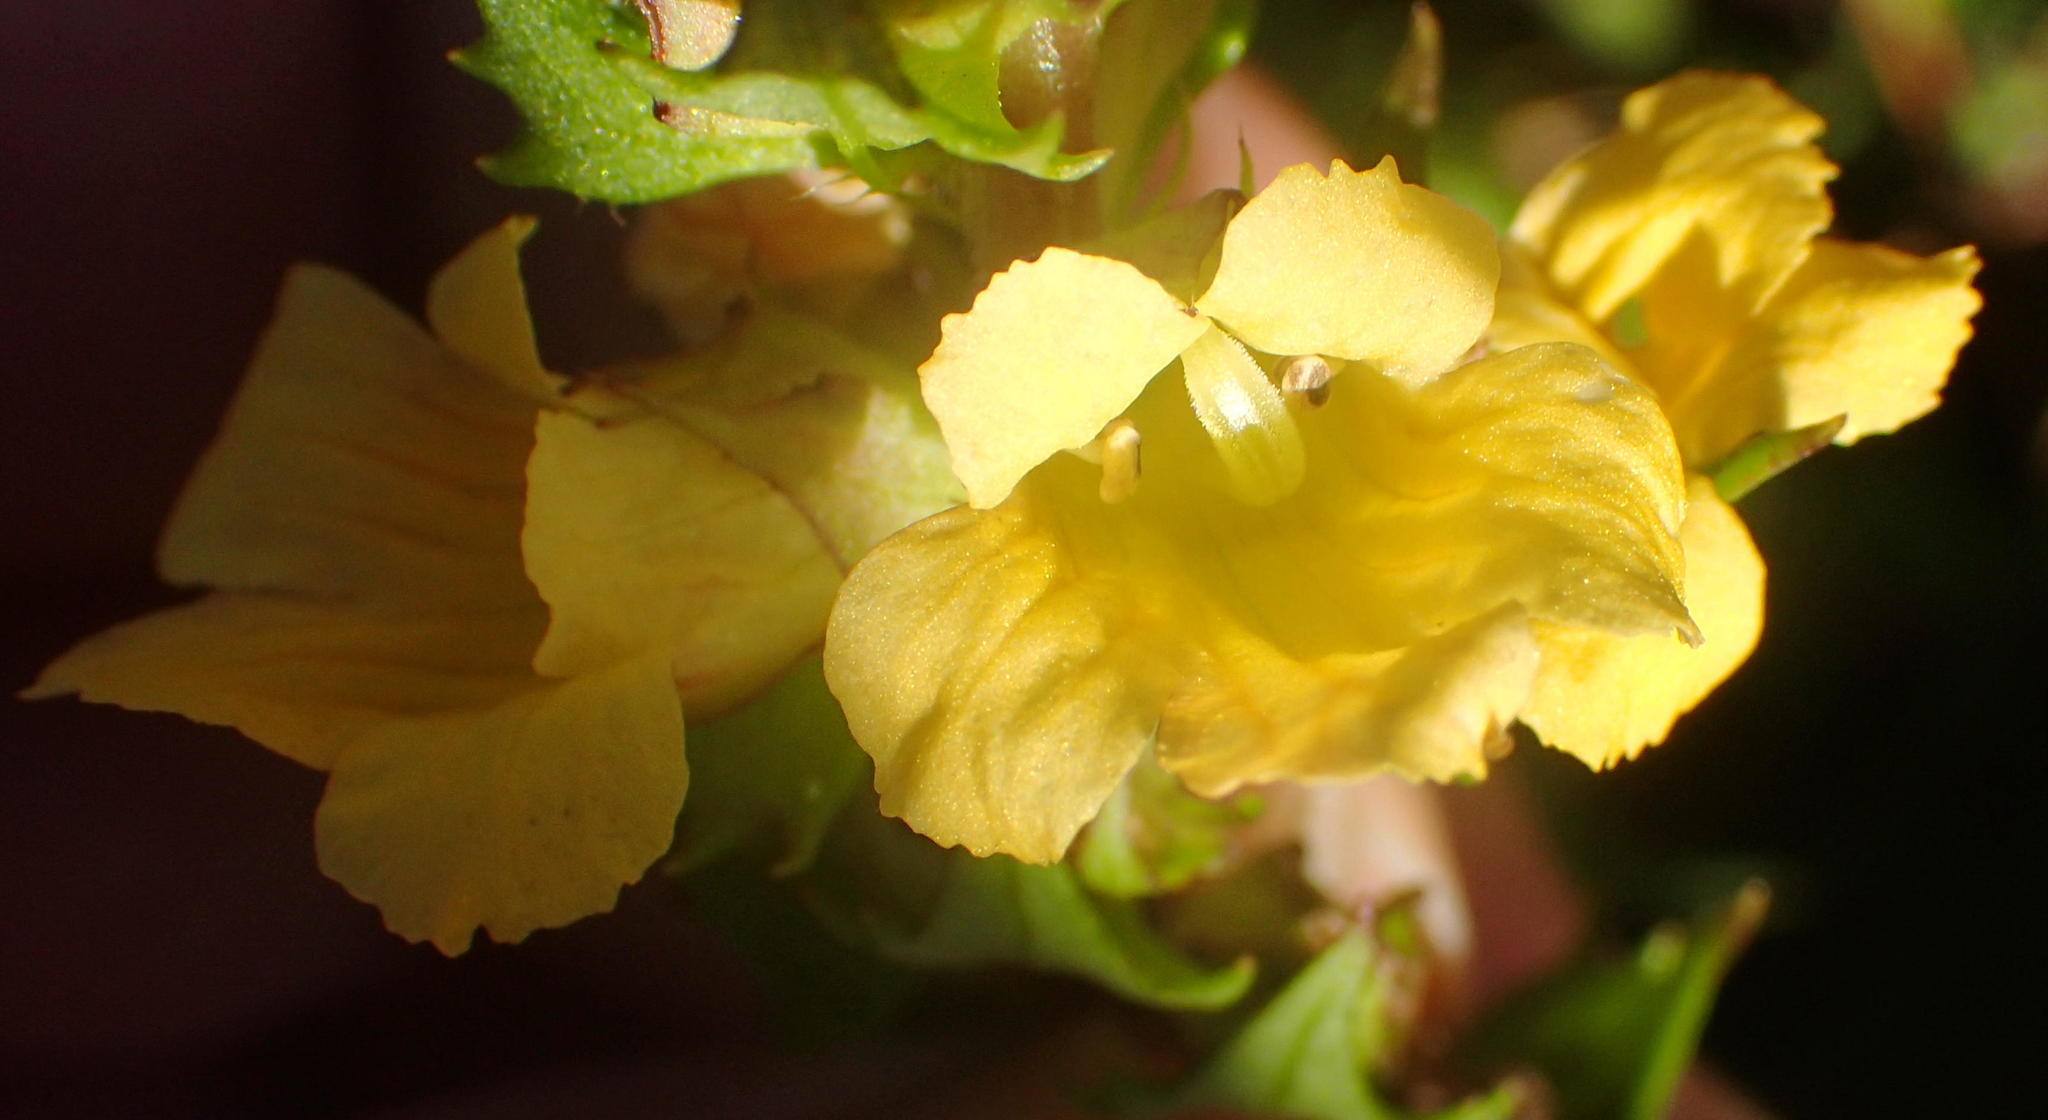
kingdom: Plantae
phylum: Tracheophyta
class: Magnoliopsida
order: Lamiales
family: Orobanchaceae
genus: Alectra
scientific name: Alectra sessiliflora
